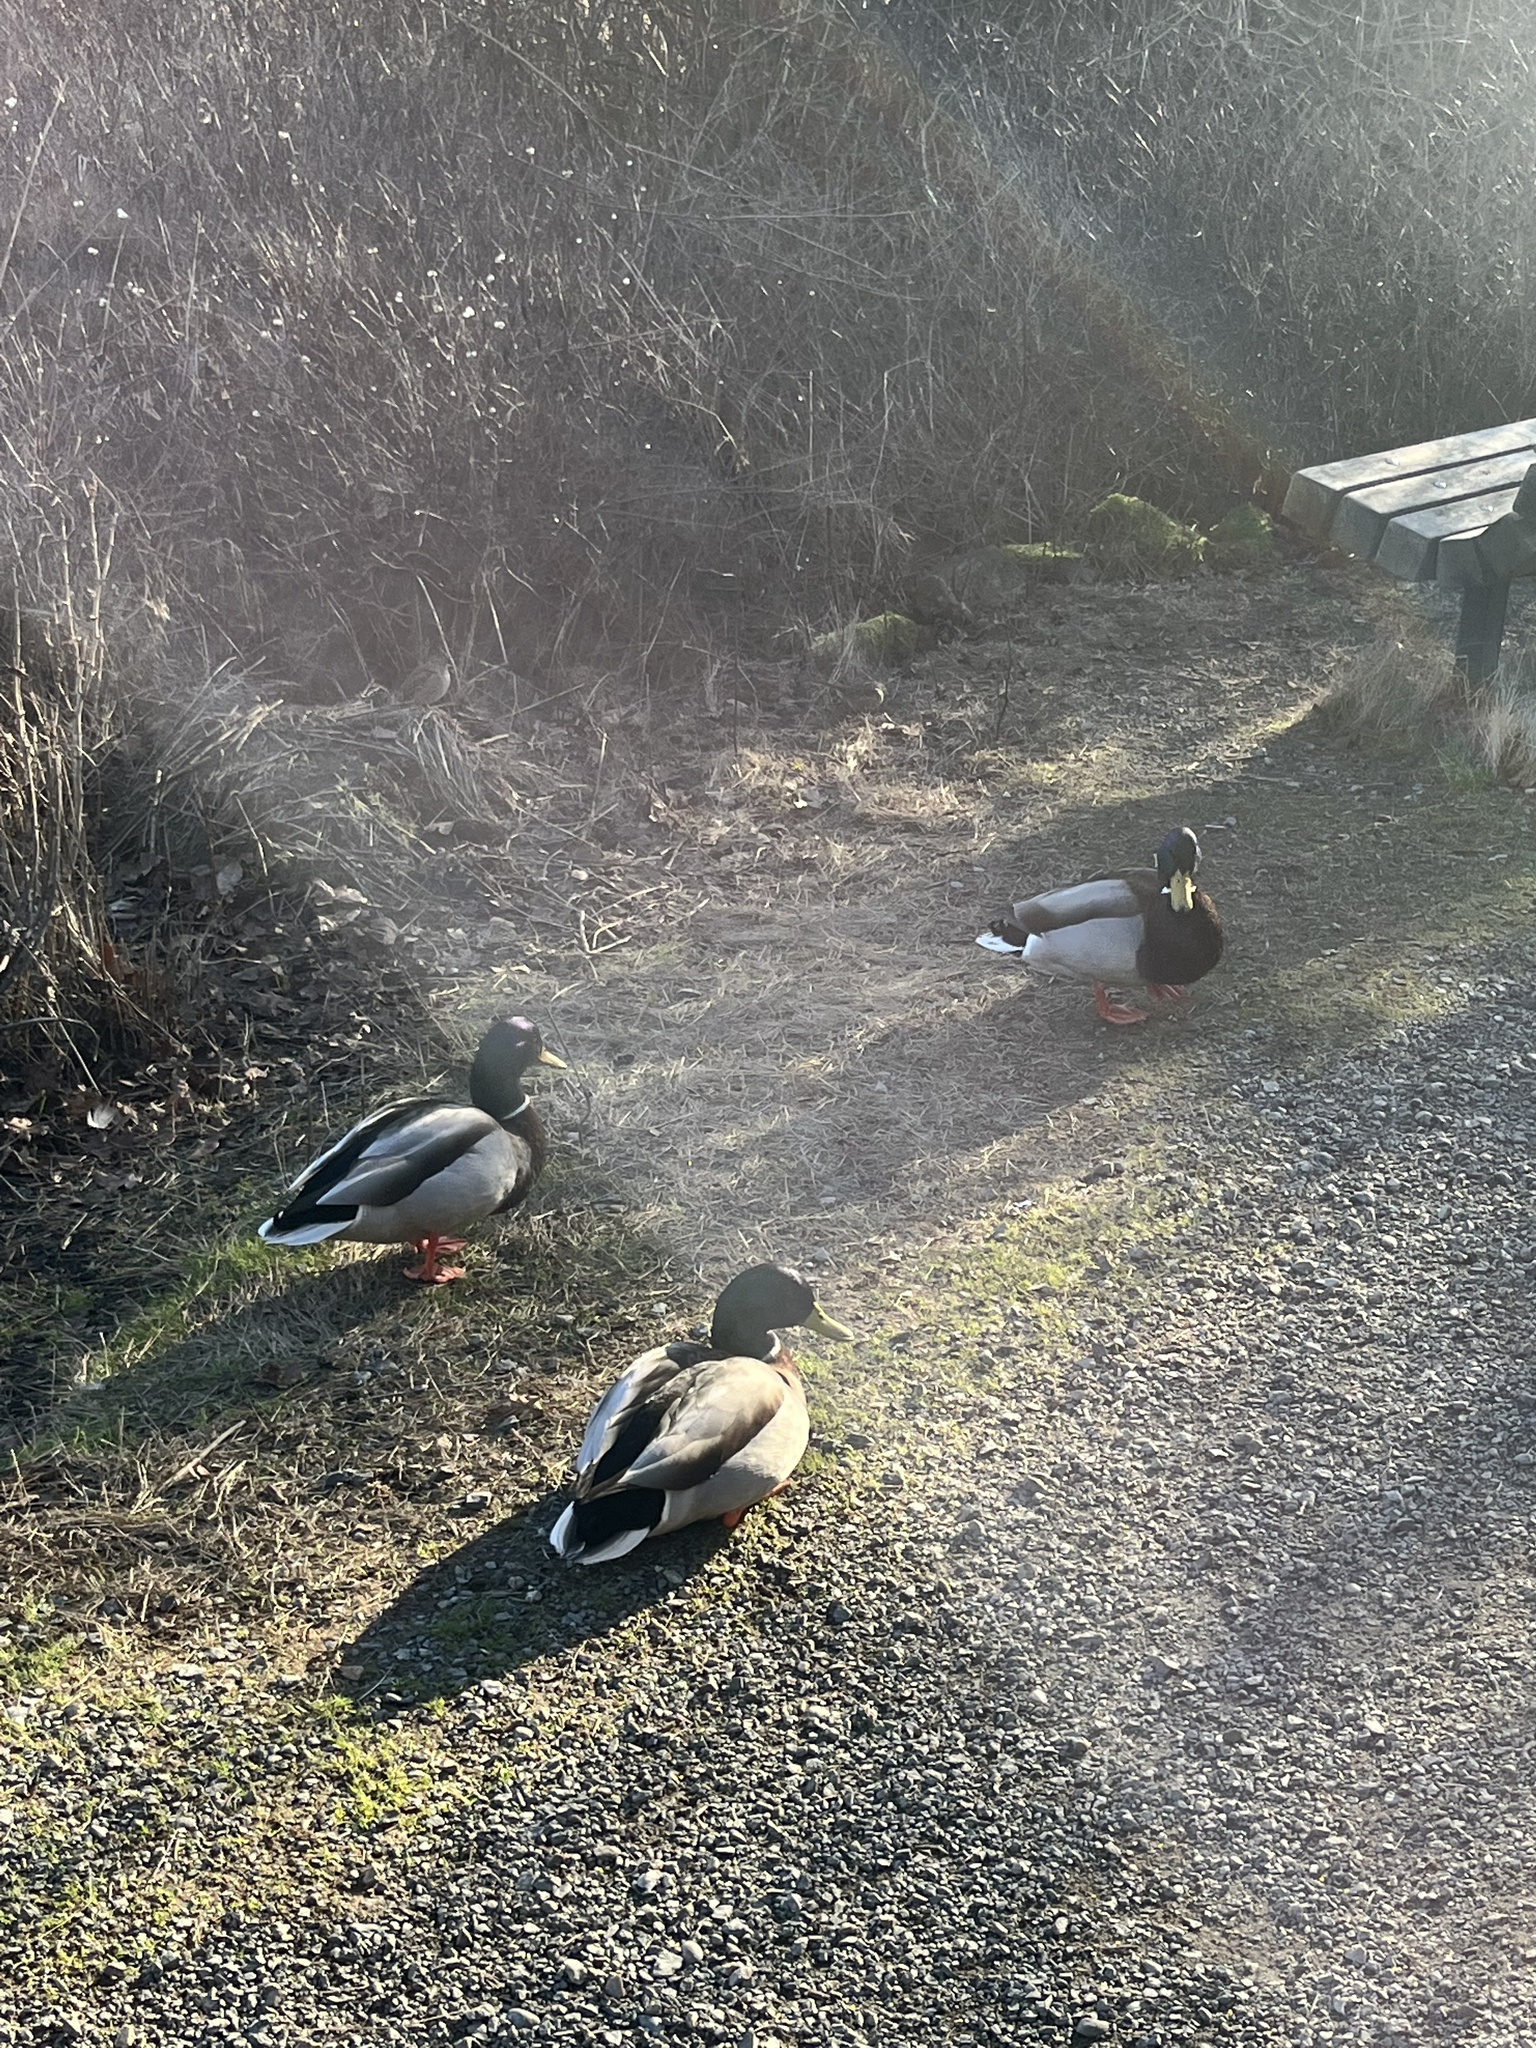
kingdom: Animalia
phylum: Chordata
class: Aves
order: Anseriformes
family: Anatidae
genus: Anas
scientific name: Anas platyrhynchos
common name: Mallard
